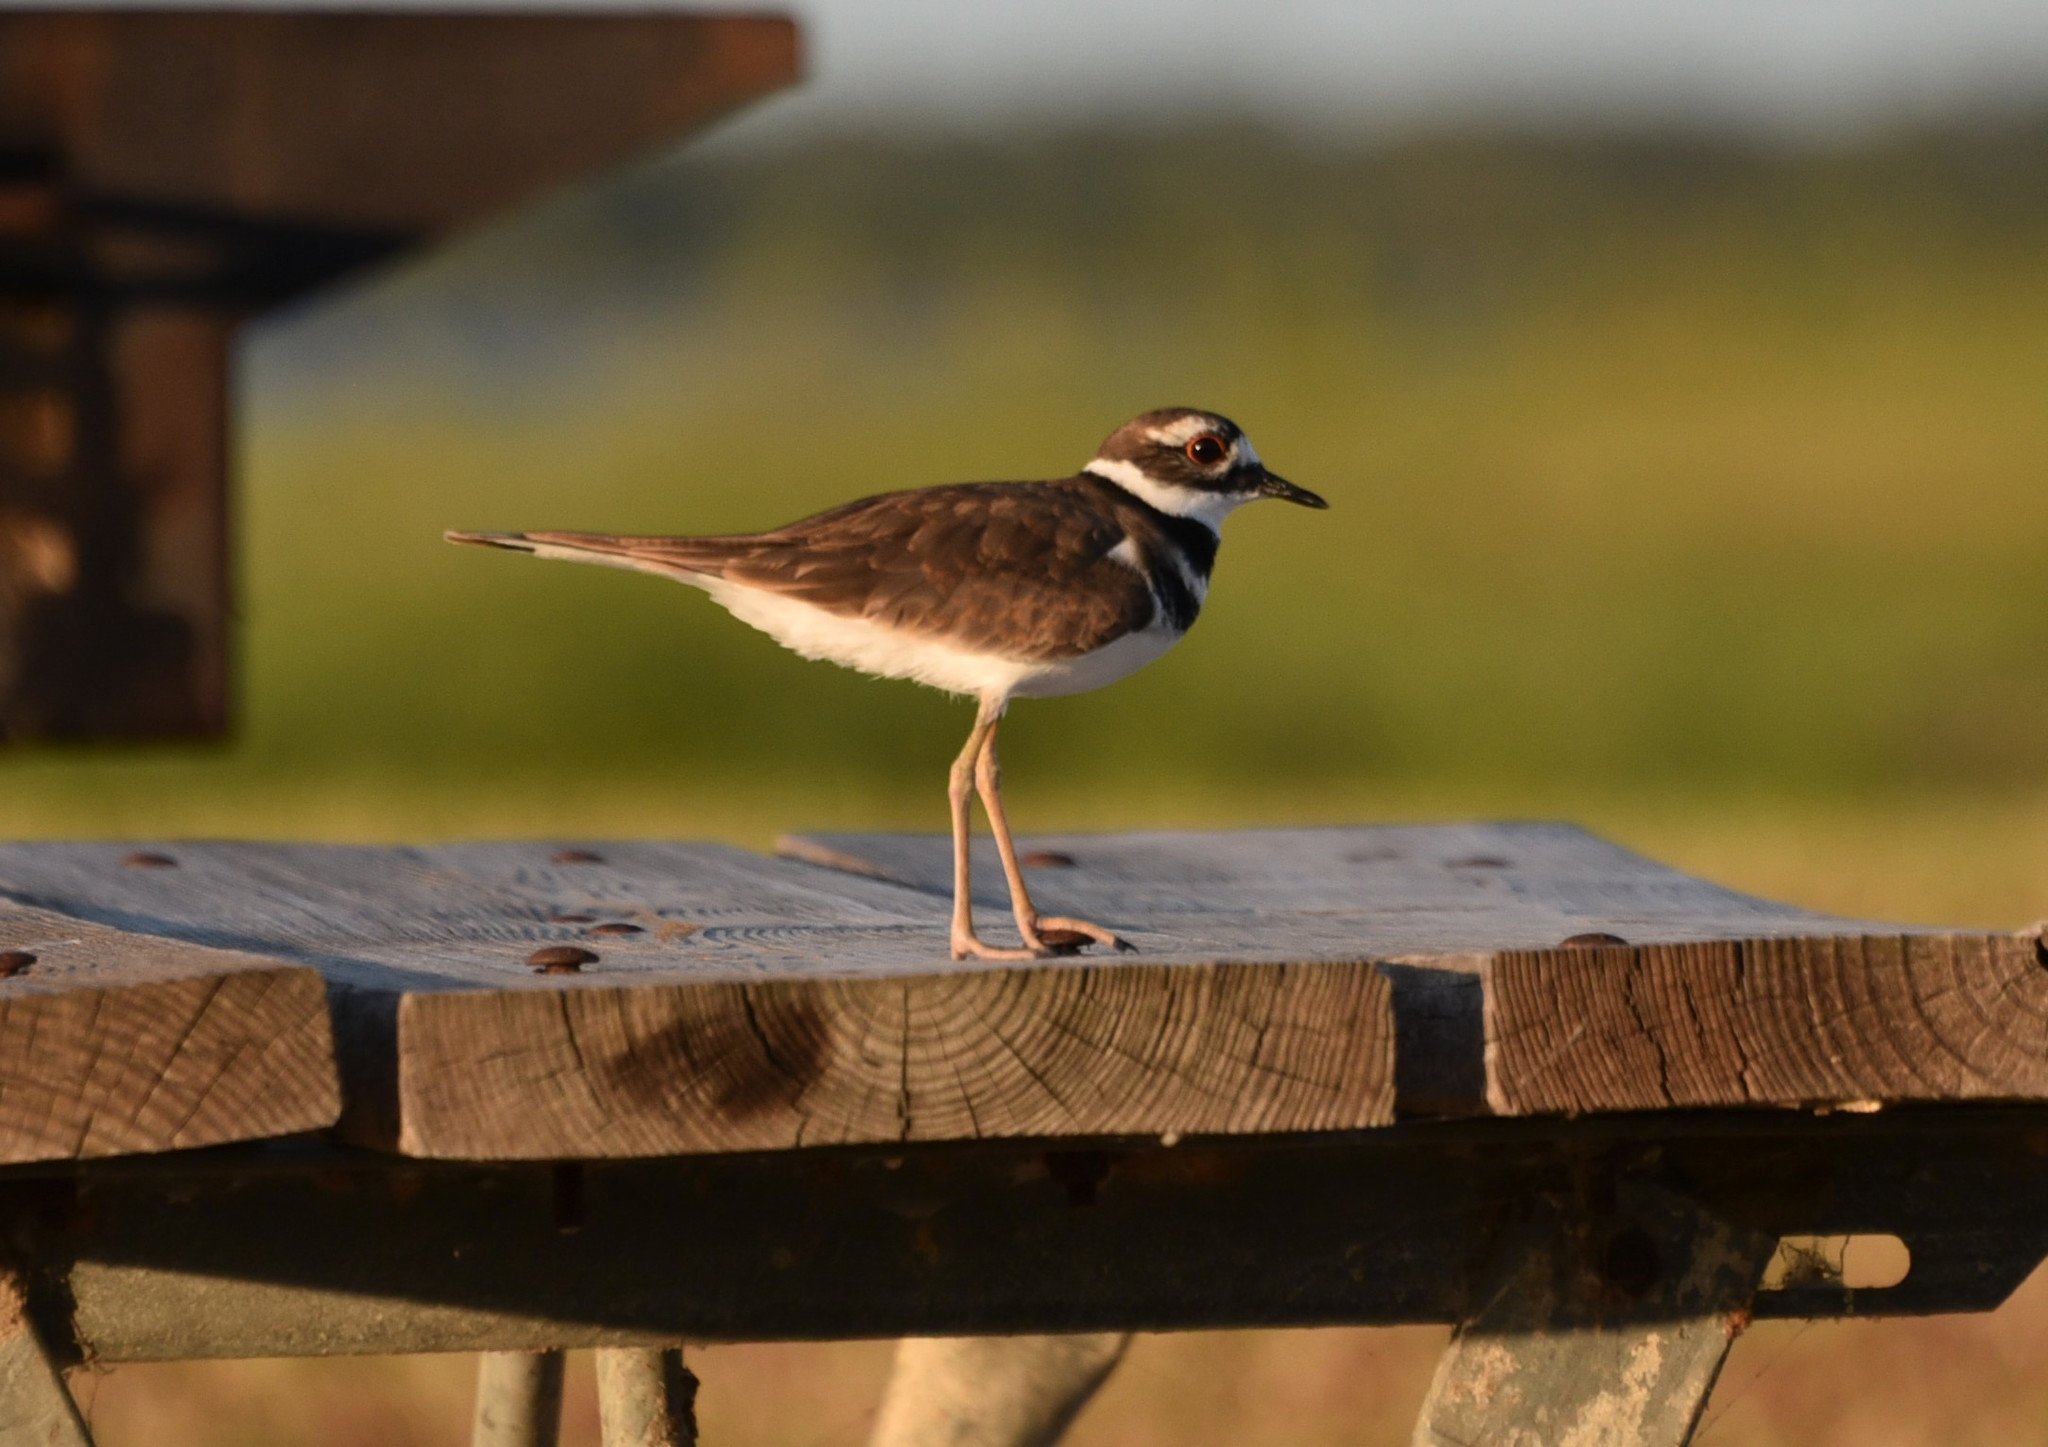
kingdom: Animalia
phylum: Chordata
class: Aves
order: Charadriiformes
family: Charadriidae
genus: Charadrius
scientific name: Charadrius vociferus
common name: Killdeer
